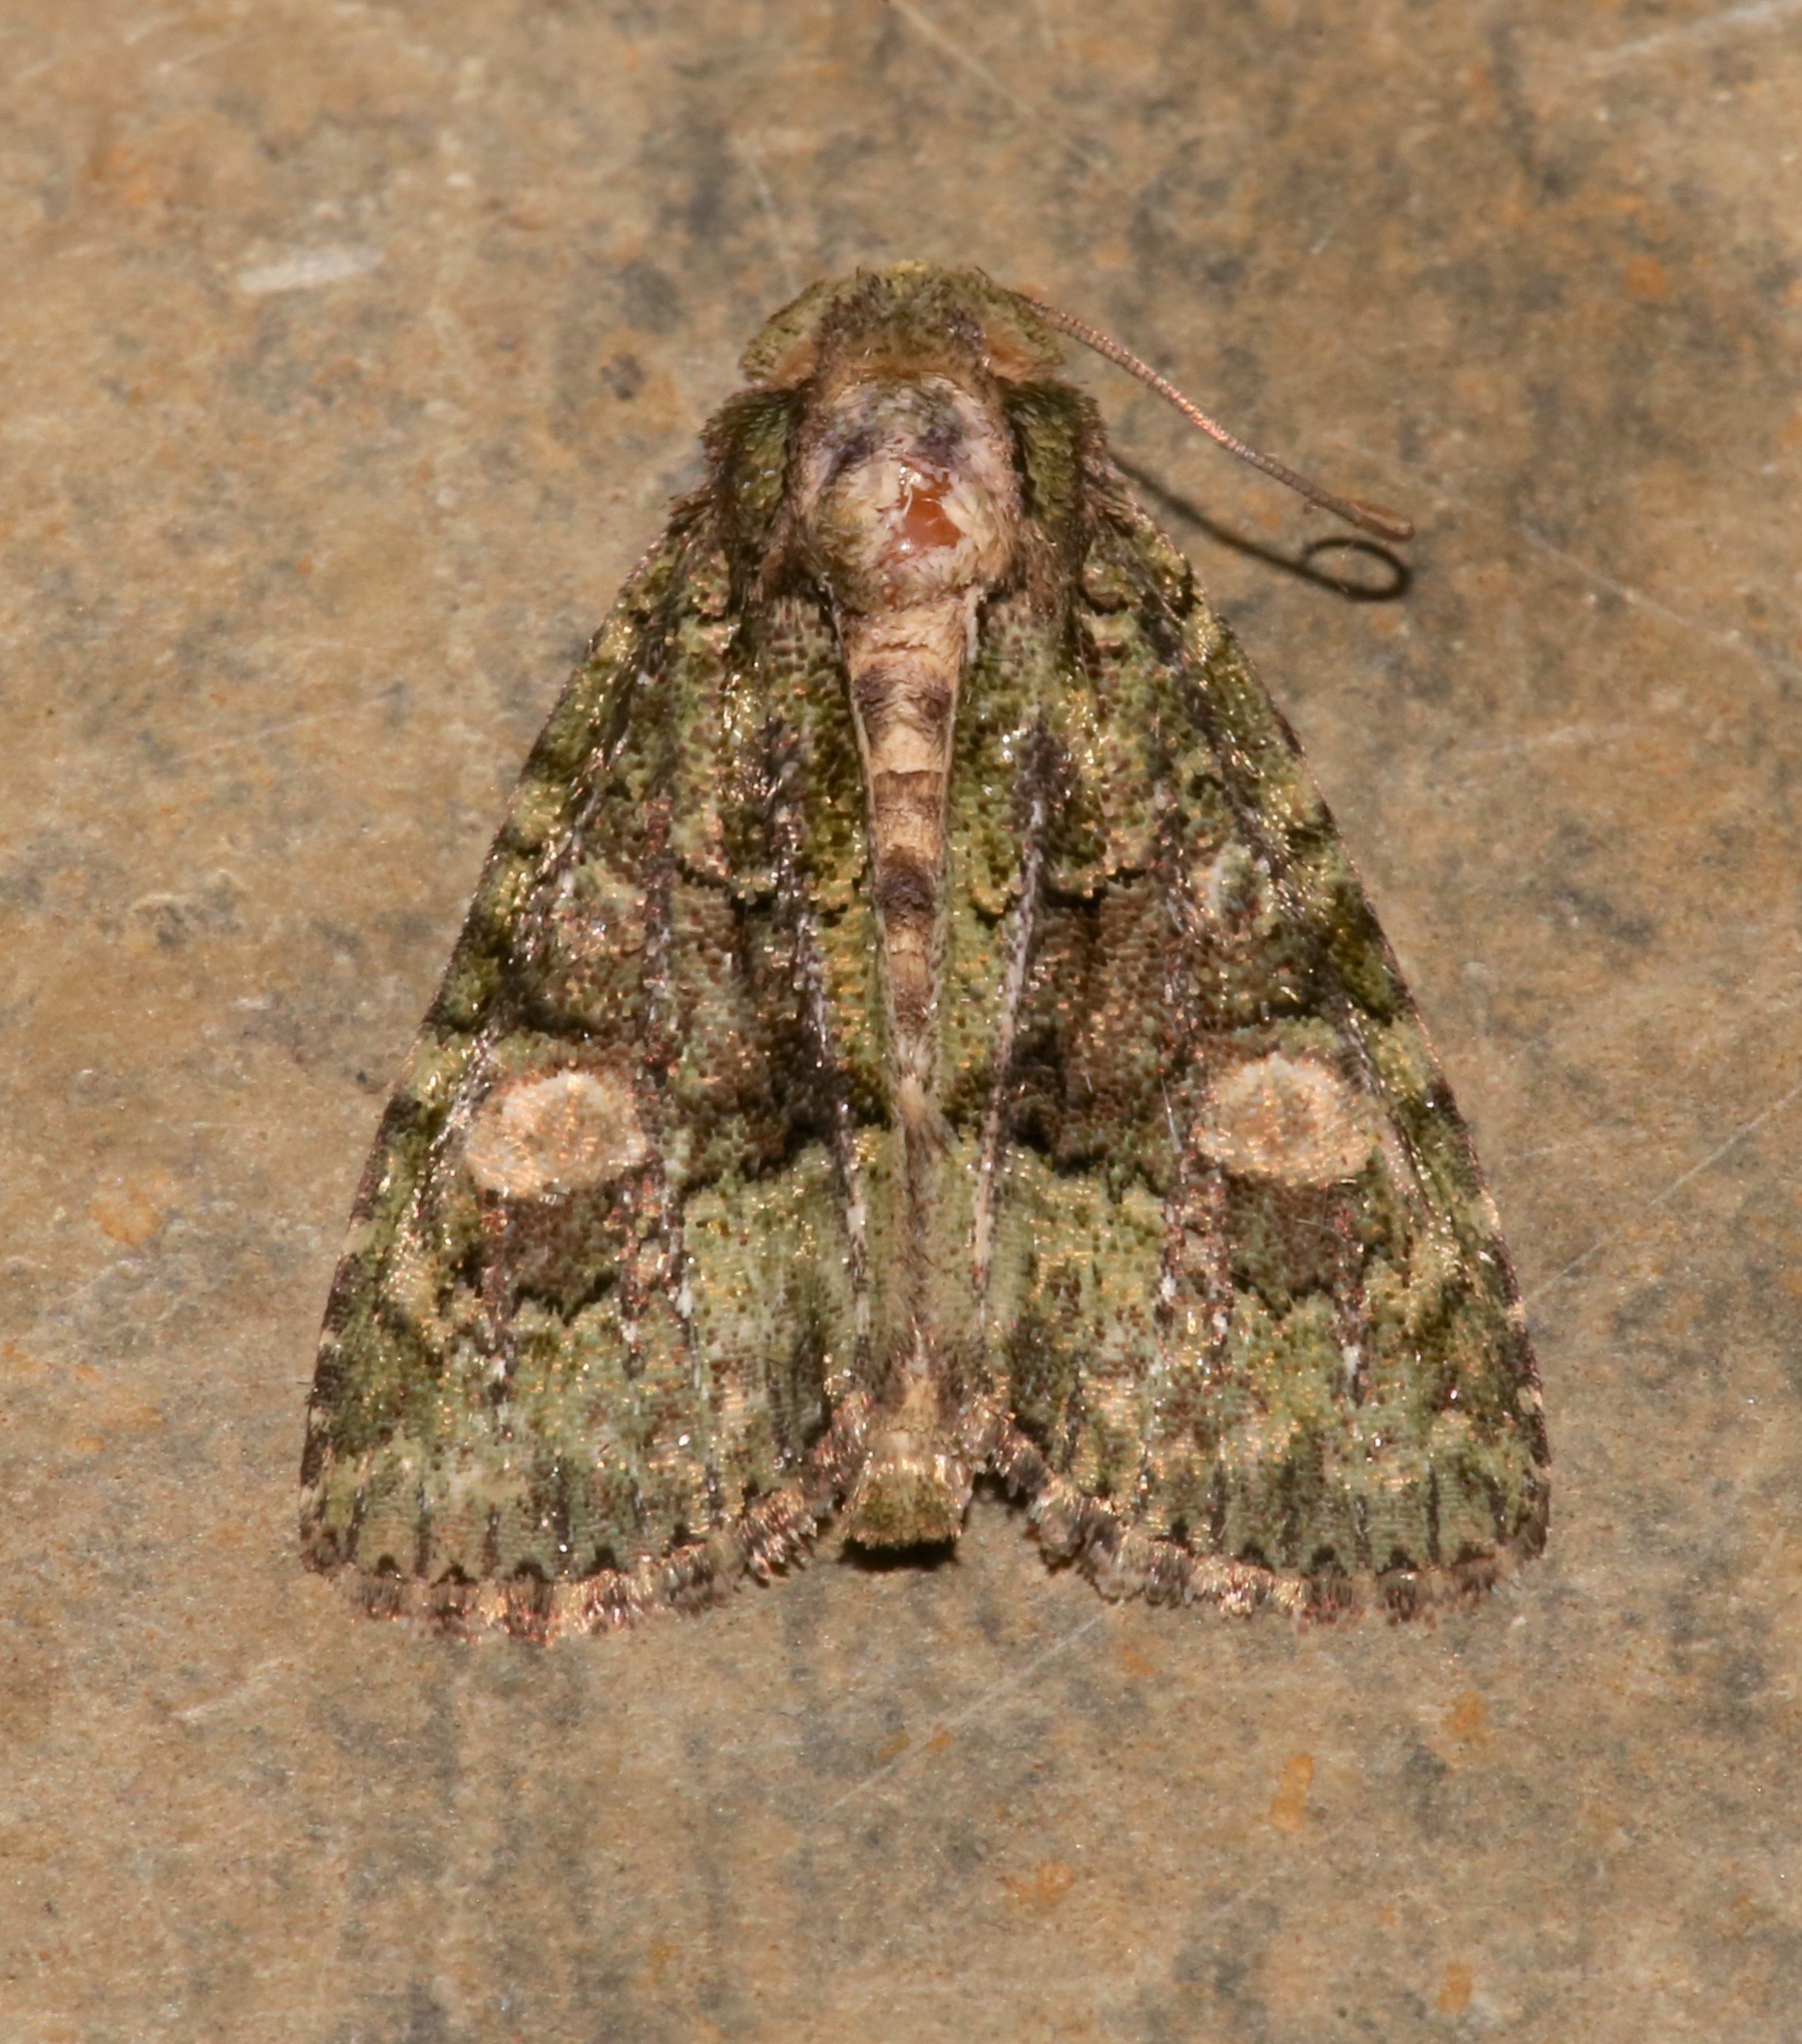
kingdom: Animalia
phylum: Arthropoda
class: Insecta
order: Lepidoptera
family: Noctuidae
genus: Phosphila
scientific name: Phosphila miselioides
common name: Spotted phosphila moth
